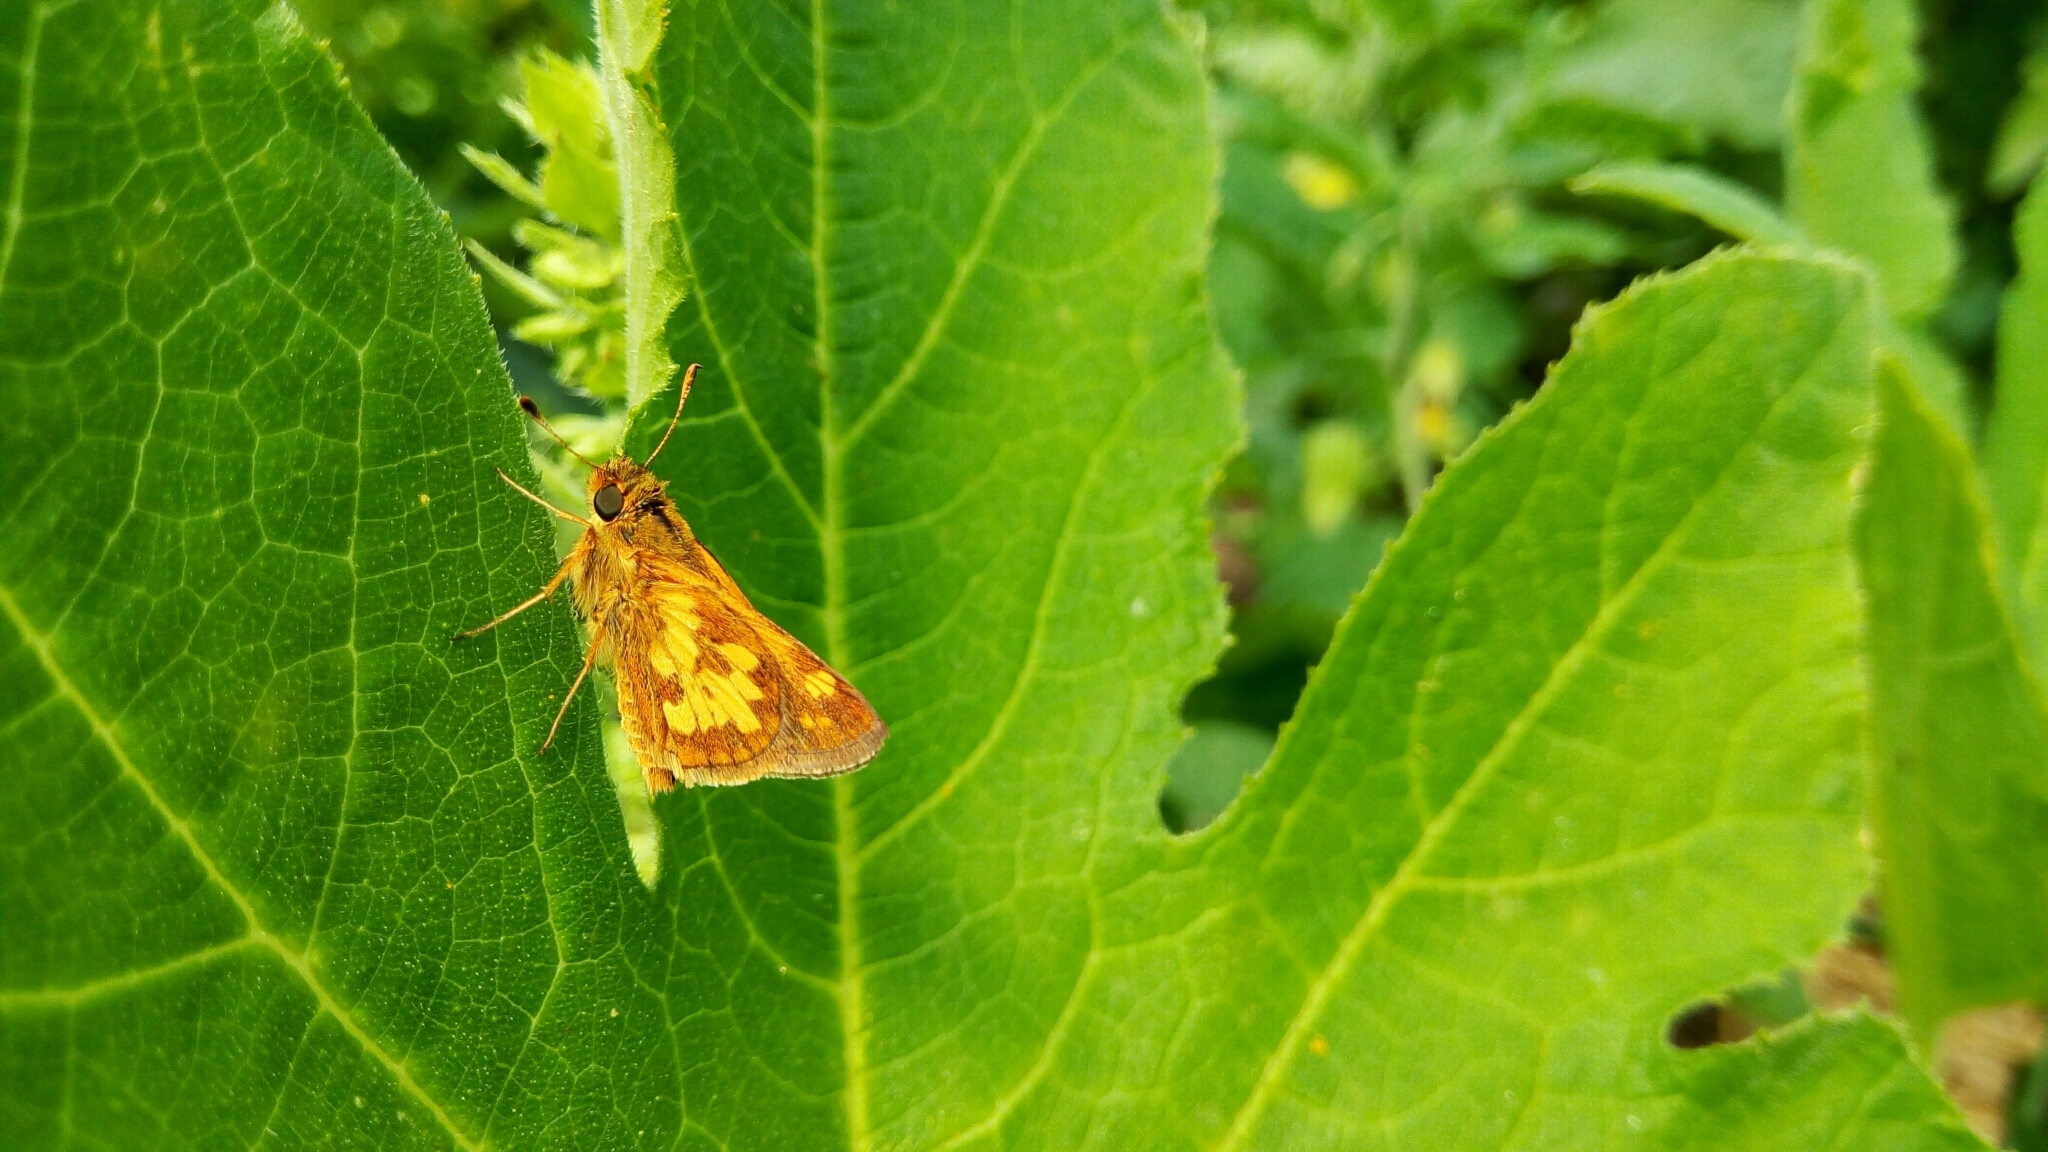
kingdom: Animalia
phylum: Arthropoda
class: Insecta
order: Lepidoptera
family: Hesperiidae
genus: Polites
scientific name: Polites coras
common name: Peck's skipper
